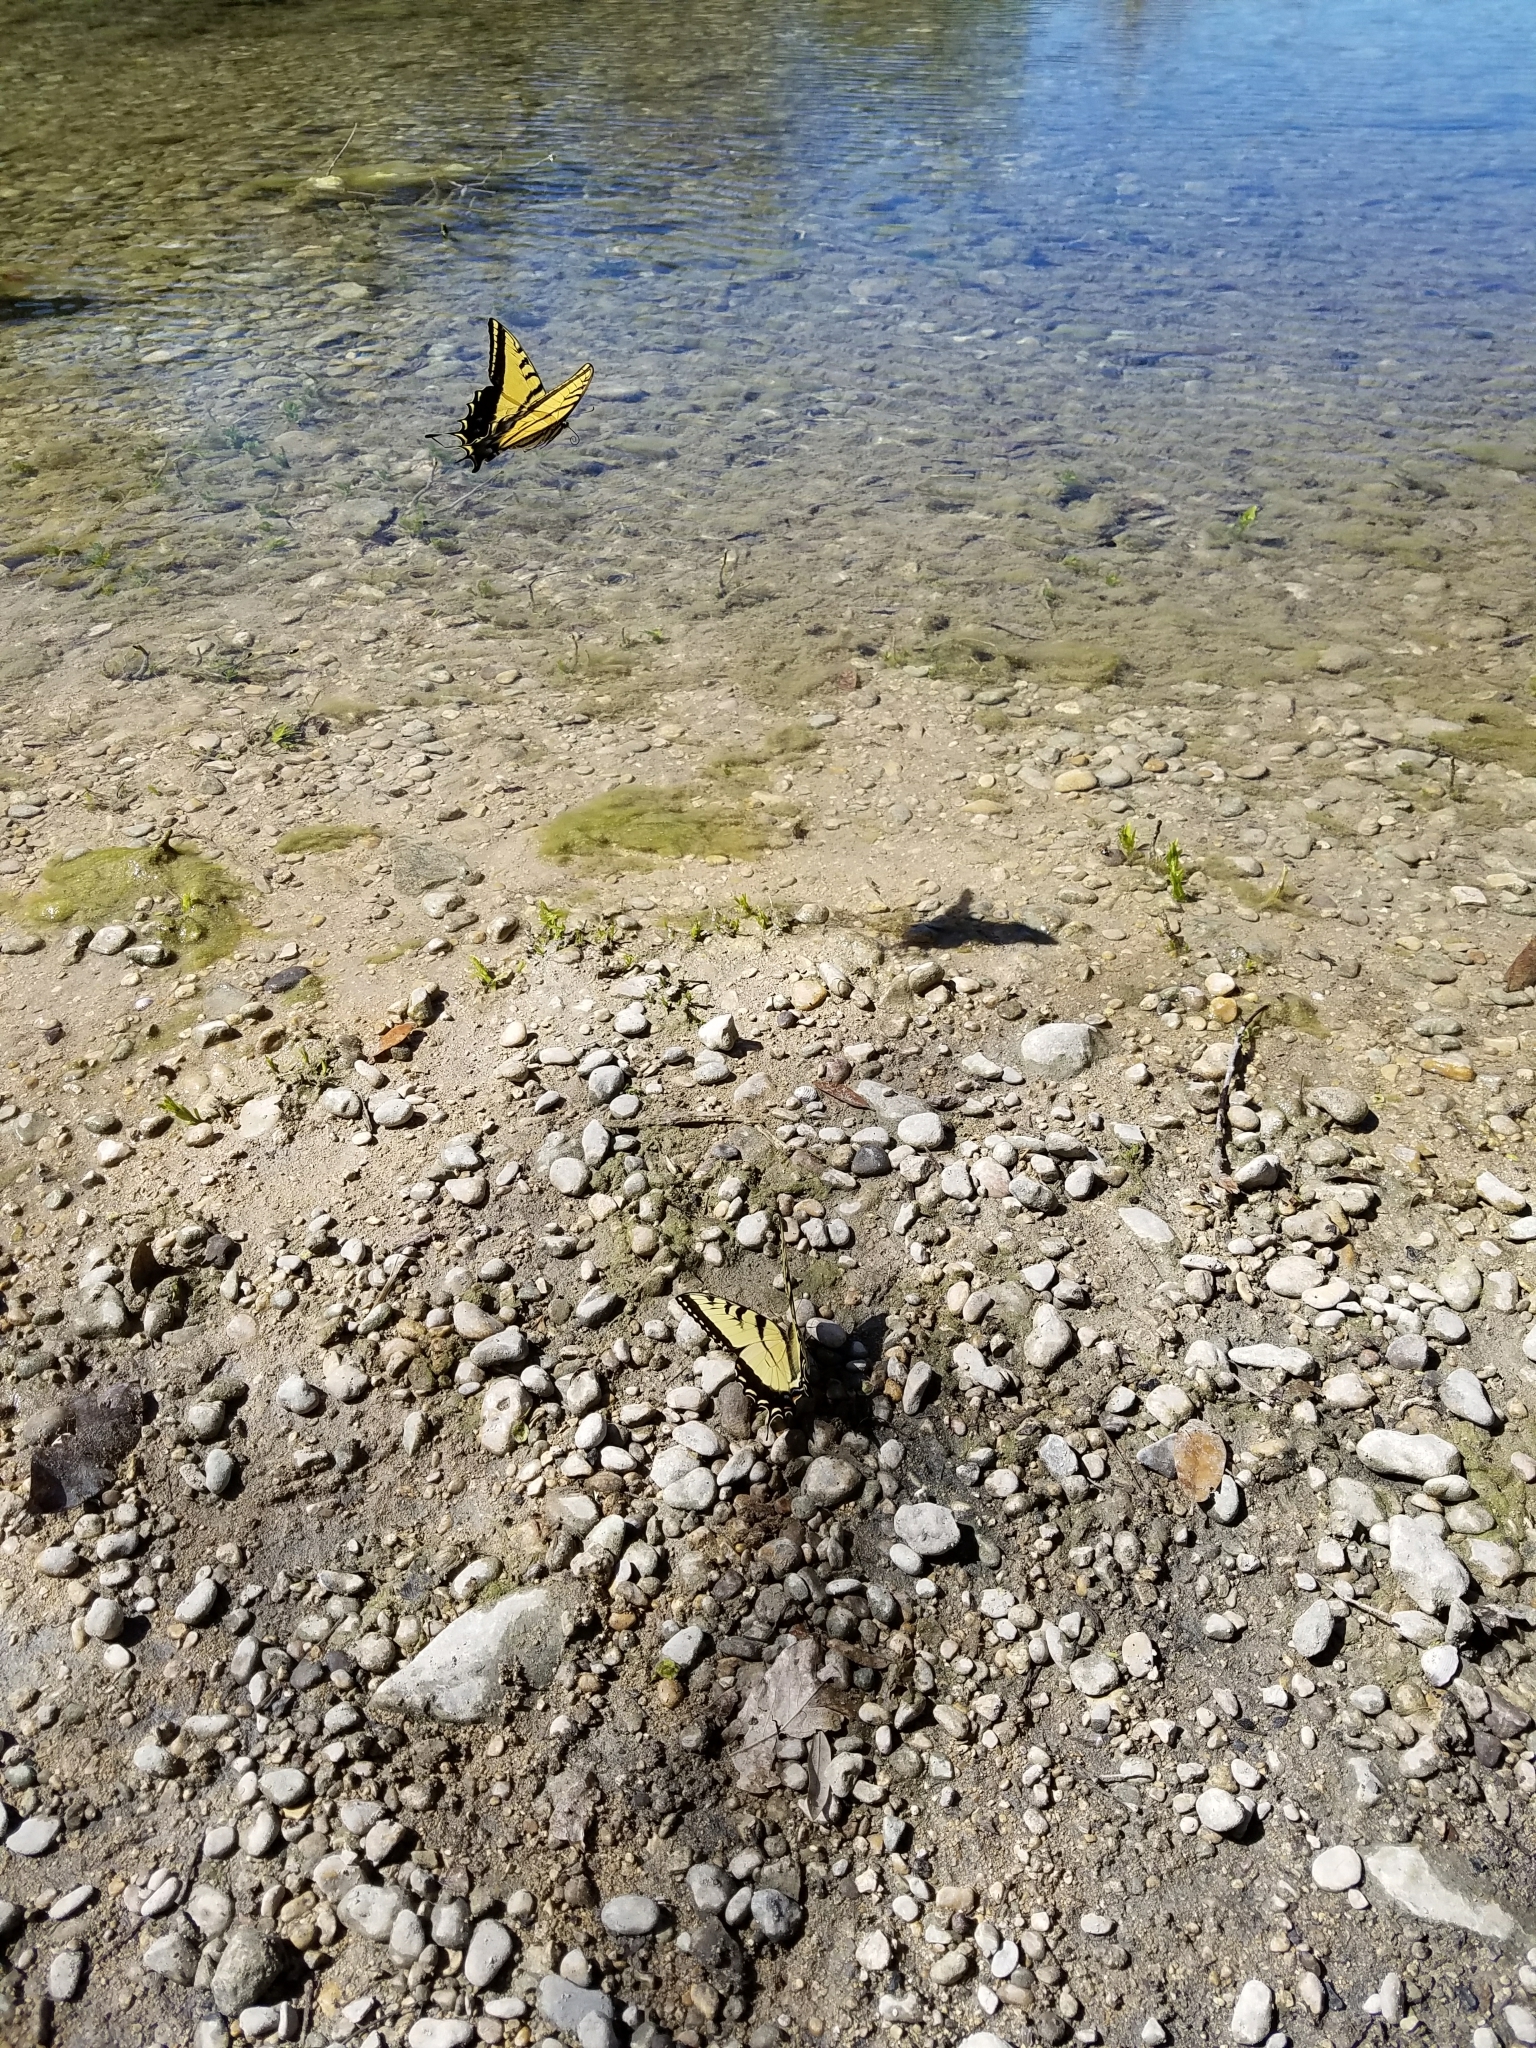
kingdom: Animalia
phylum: Arthropoda
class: Insecta
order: Lepidoptera
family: Papilionidae
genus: Papilio
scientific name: Papilio glaucus
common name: Tiger swallowtail
